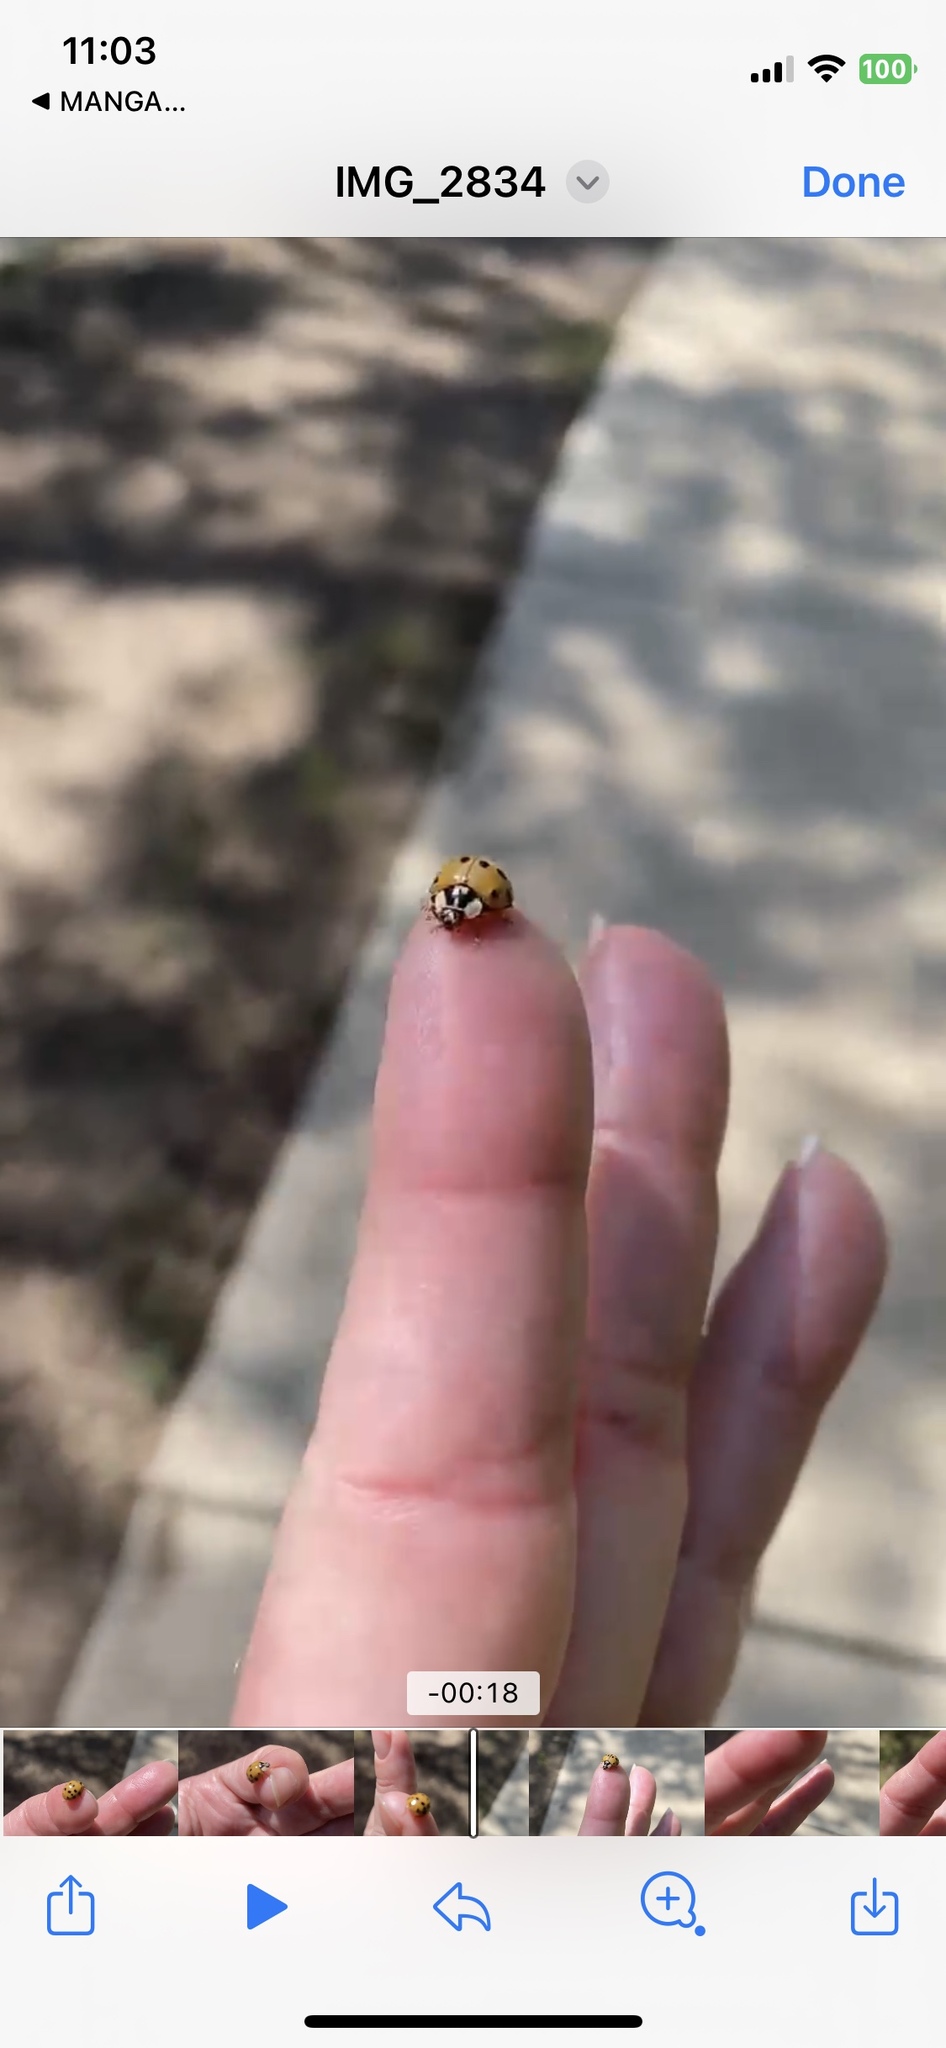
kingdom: Animalia
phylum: Arthropoda
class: Insecta
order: Coleoptera
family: Coccinellidae
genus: Harmonia
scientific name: Harmonia axyridis
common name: Harlequin ladybird
